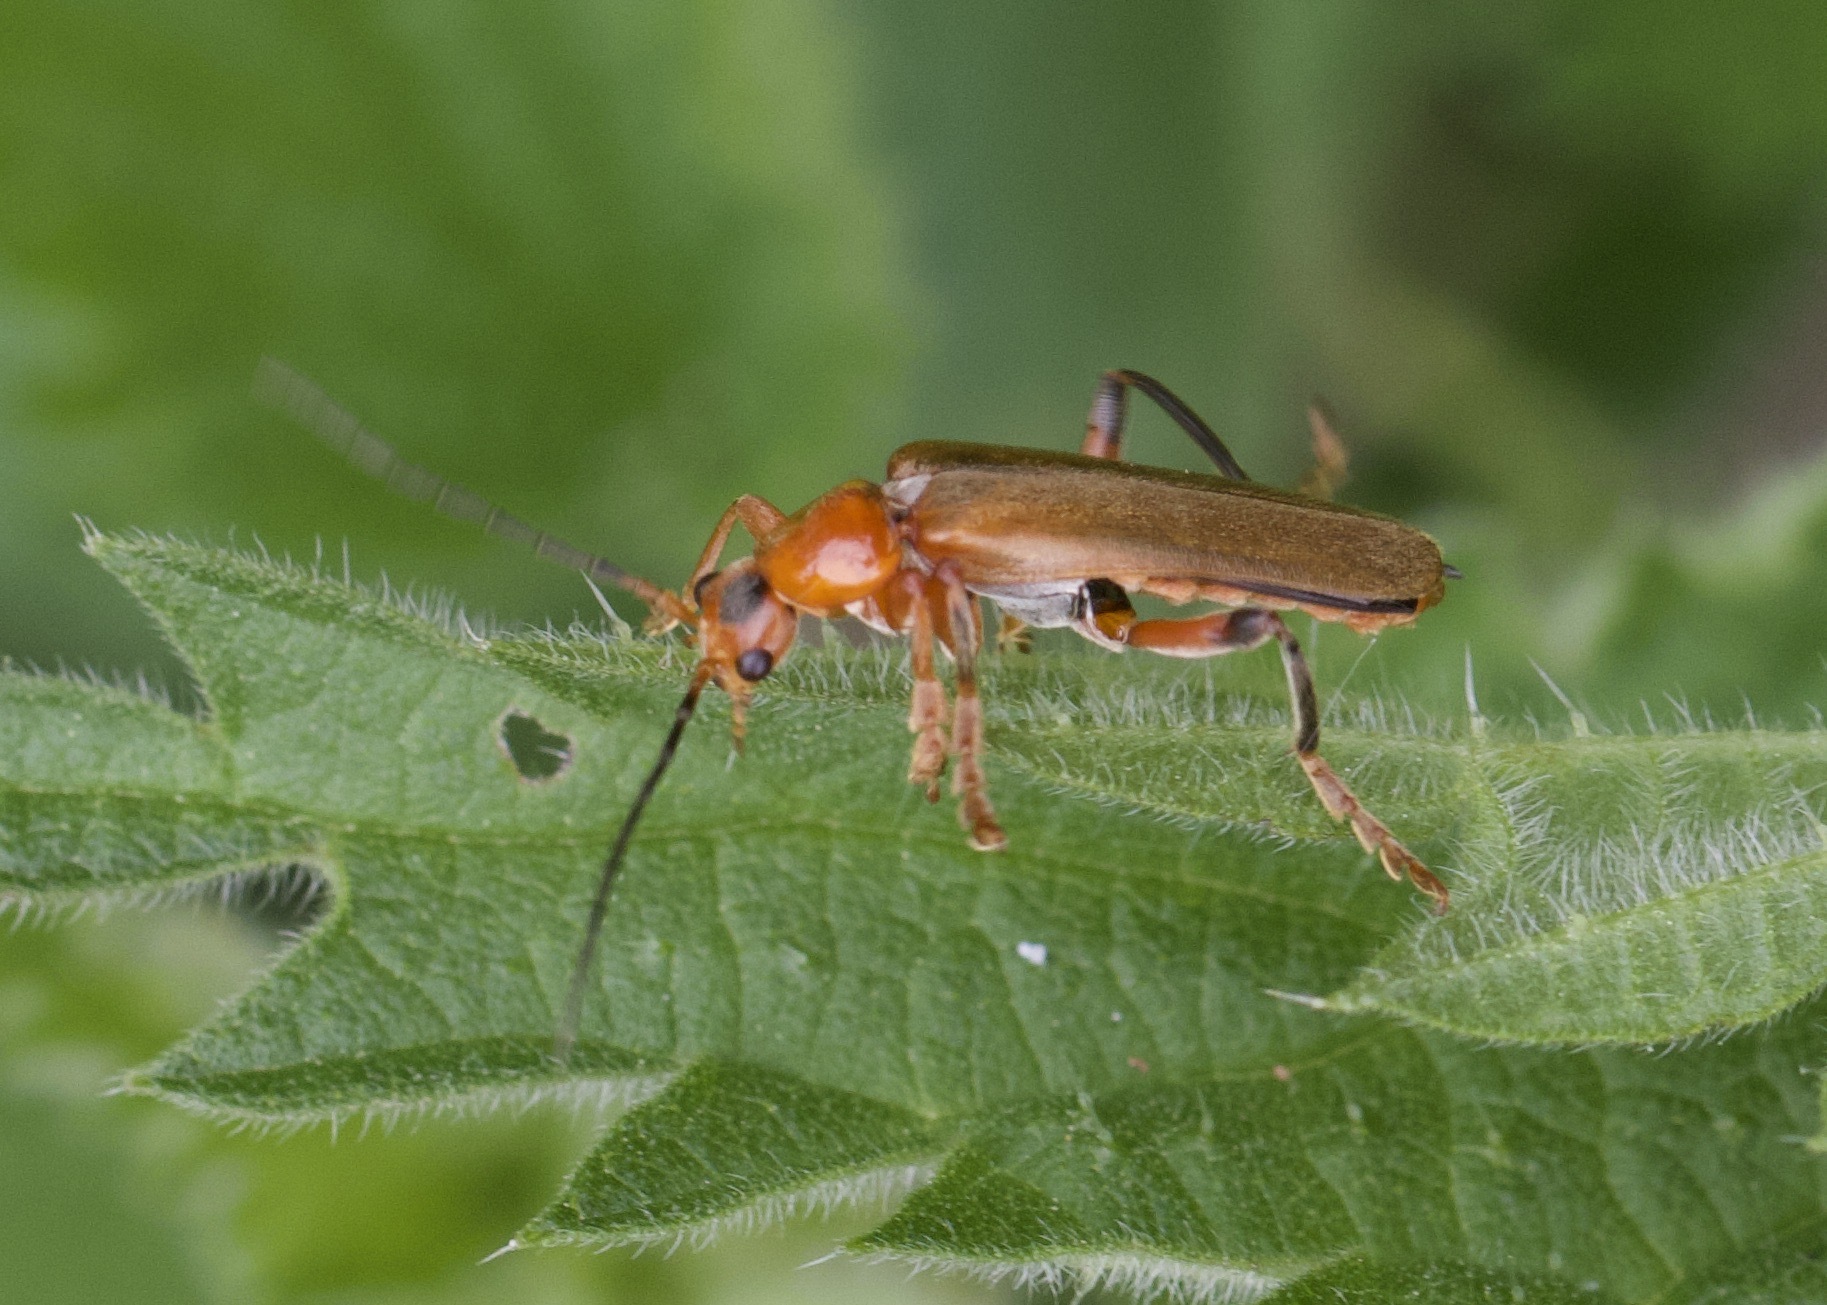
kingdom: Animalia
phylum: Arthropoda
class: Insecta
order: Coleoptera
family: Cantharidae
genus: Cantharis
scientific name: Cantharis livida
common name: Livid soldier beetle
